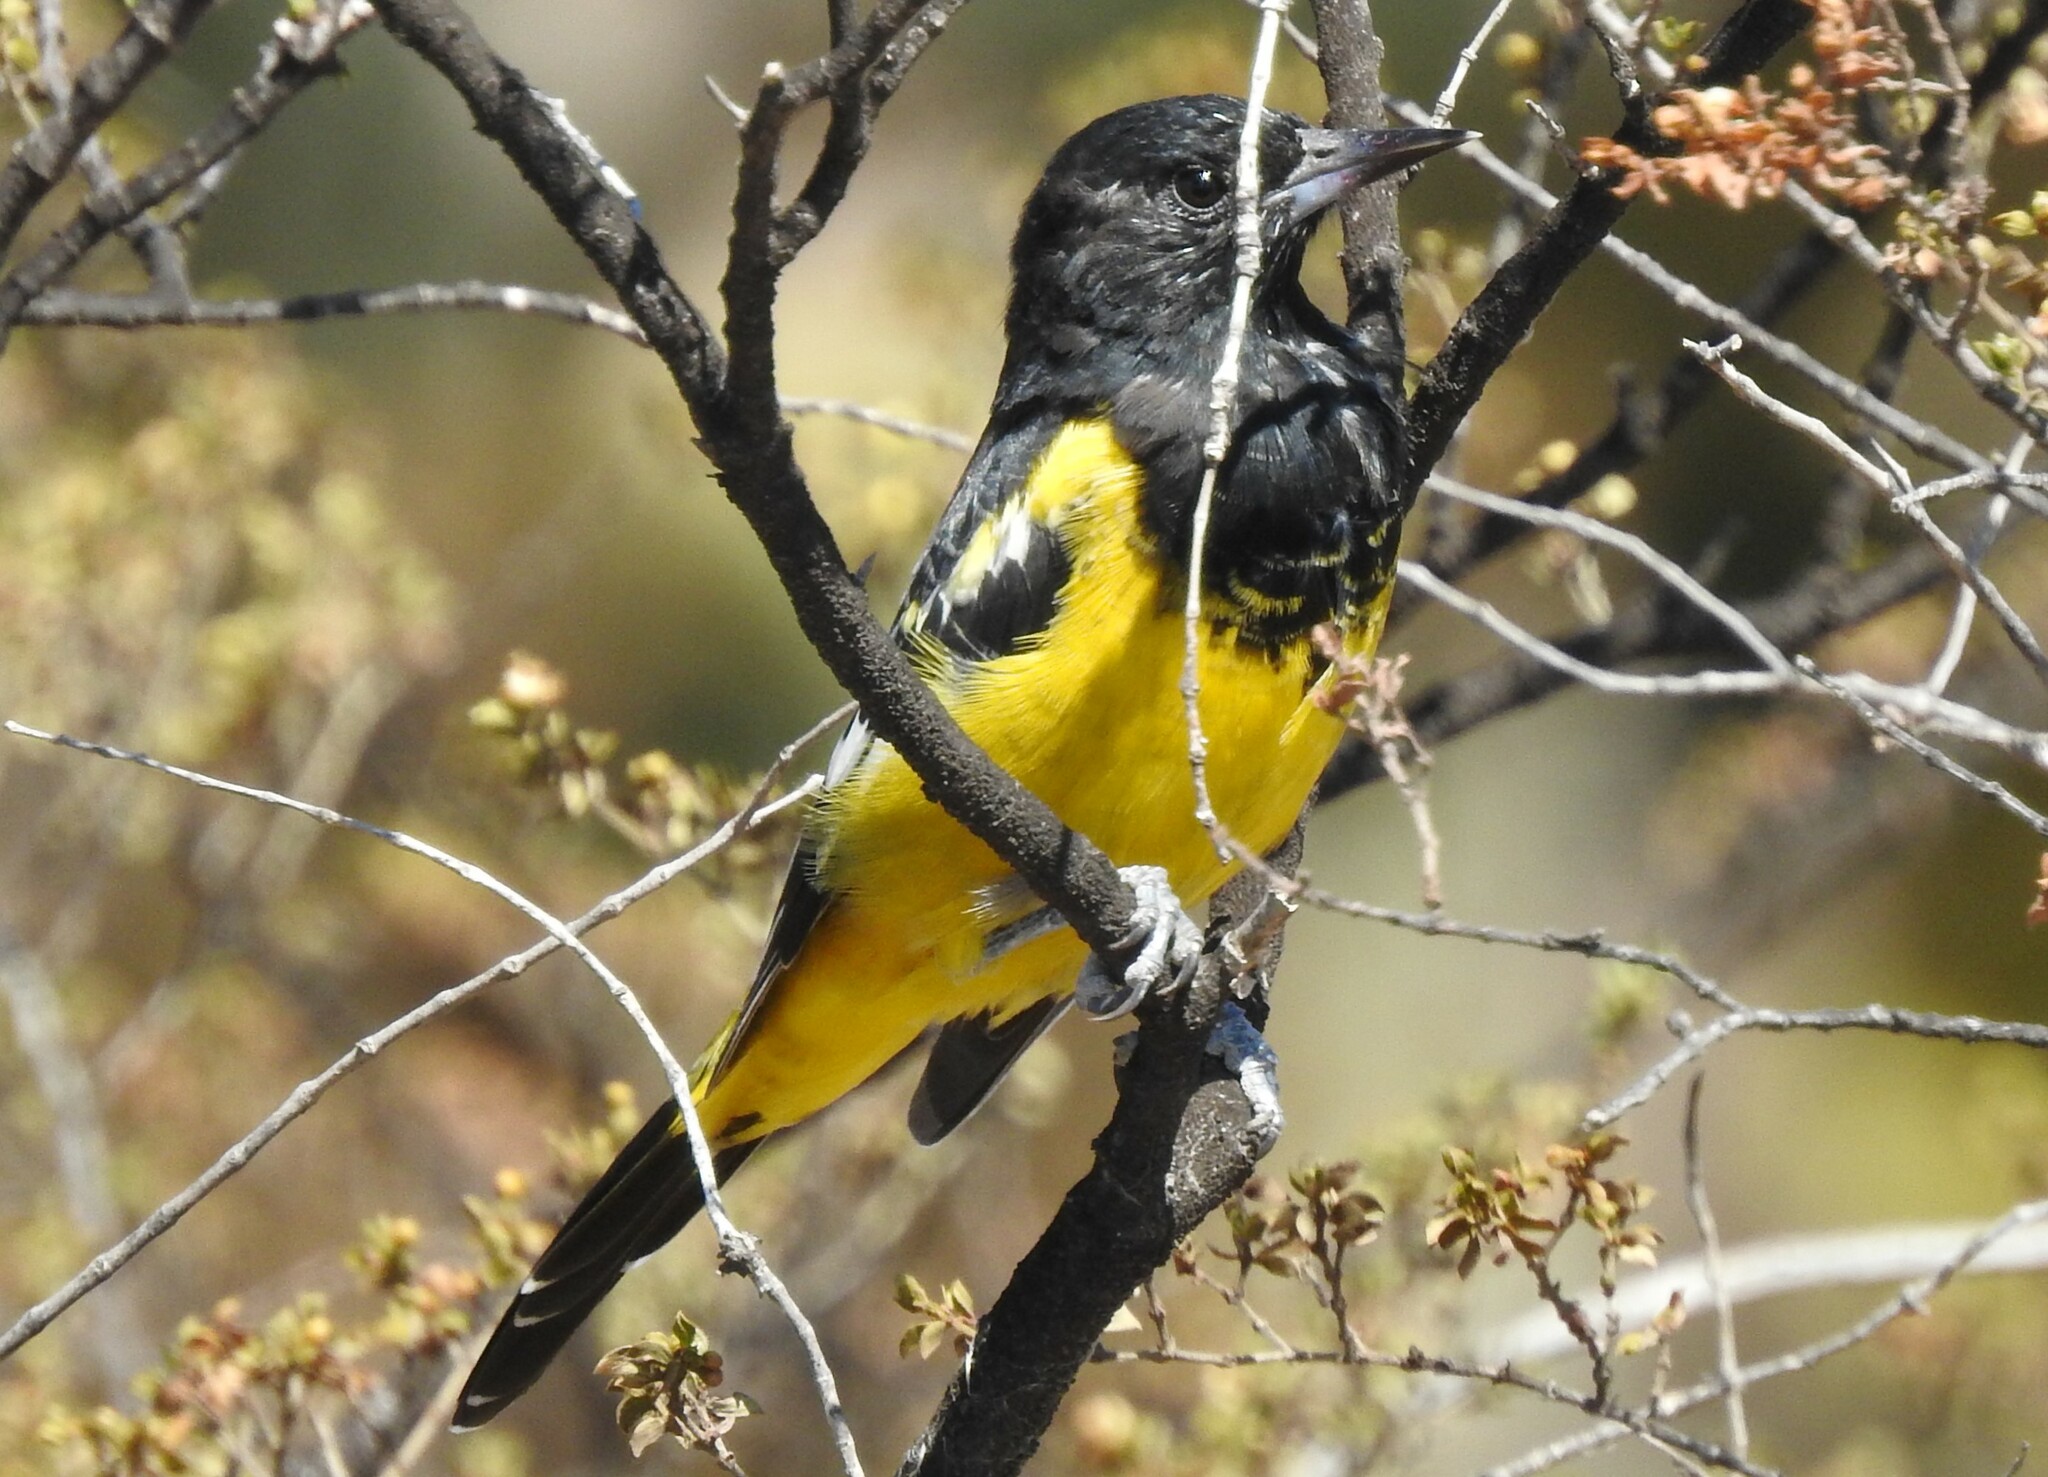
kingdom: Animalia
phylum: Chordata
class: Aves
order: Passeriformes
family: Icteridae
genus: Icterus
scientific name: Icterus parisorum
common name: Scott's oriole
